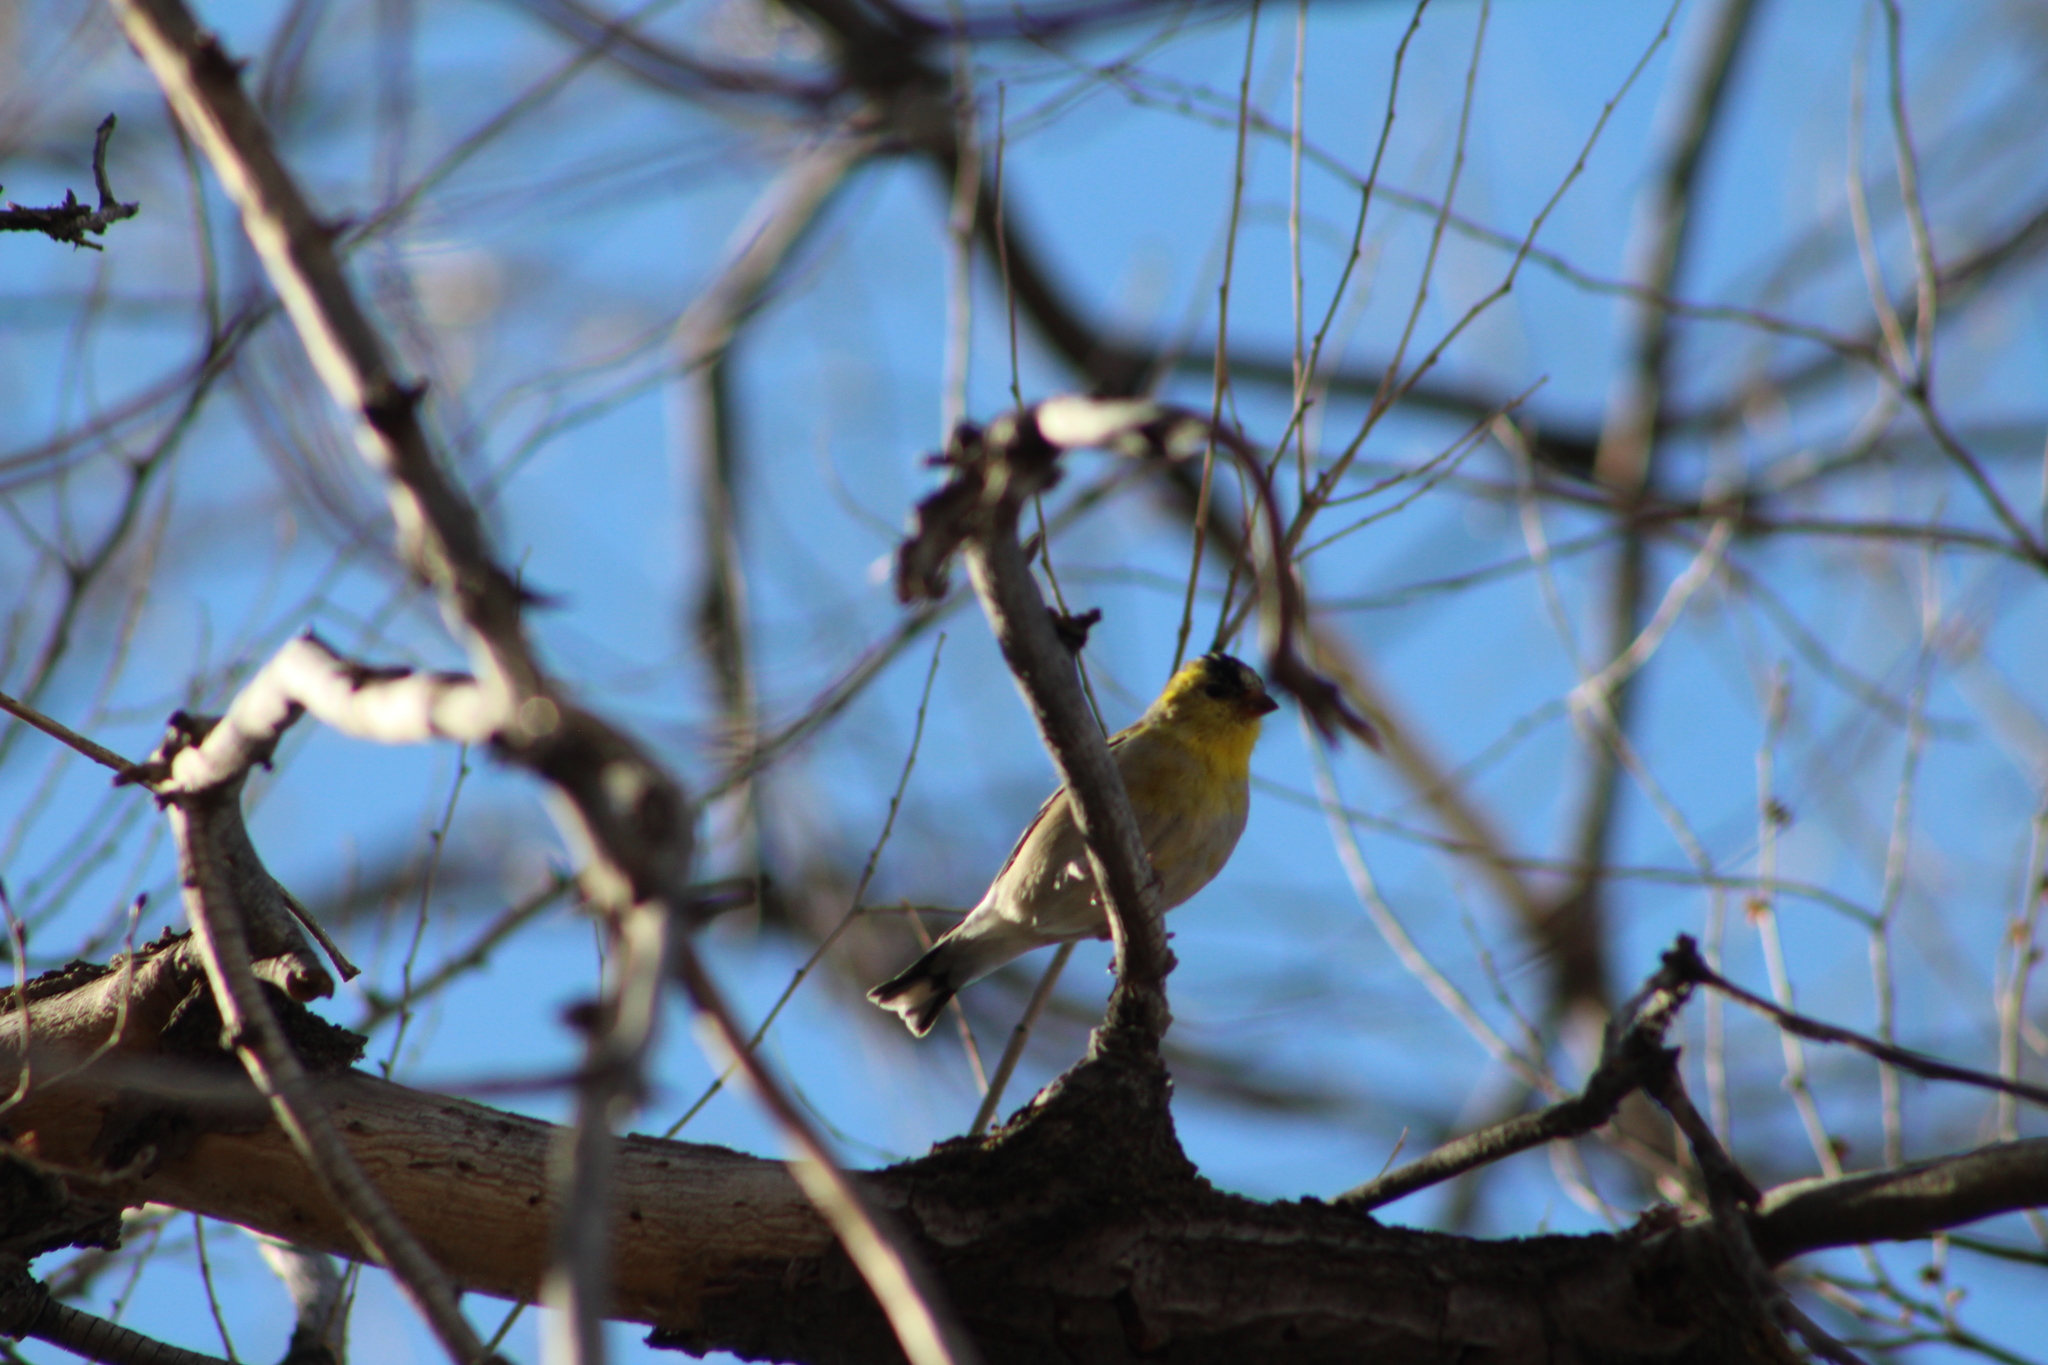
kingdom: Animalia
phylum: Chordata
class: Aves
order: Passeriformes
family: Fringillidae
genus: Spinus
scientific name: Spinus tristis
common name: American goldfinch
